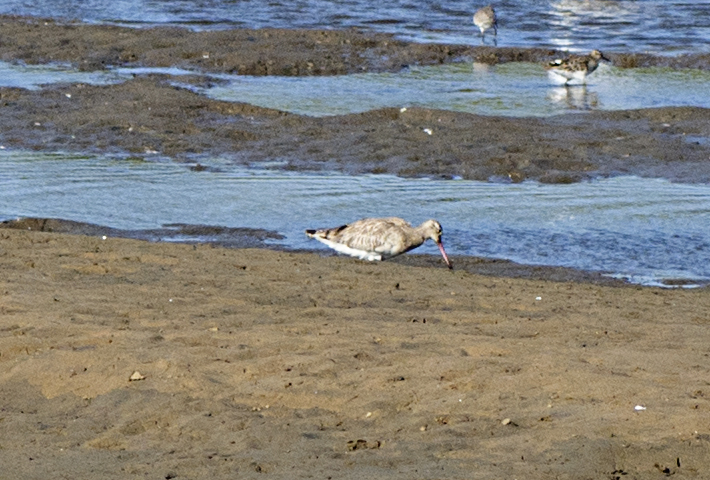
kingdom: Animalia
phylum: Chordata
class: Aves
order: Charadriiformes
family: Scolopacidae
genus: Limosa
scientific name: Limosa limosa
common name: Black-tailed godwit
